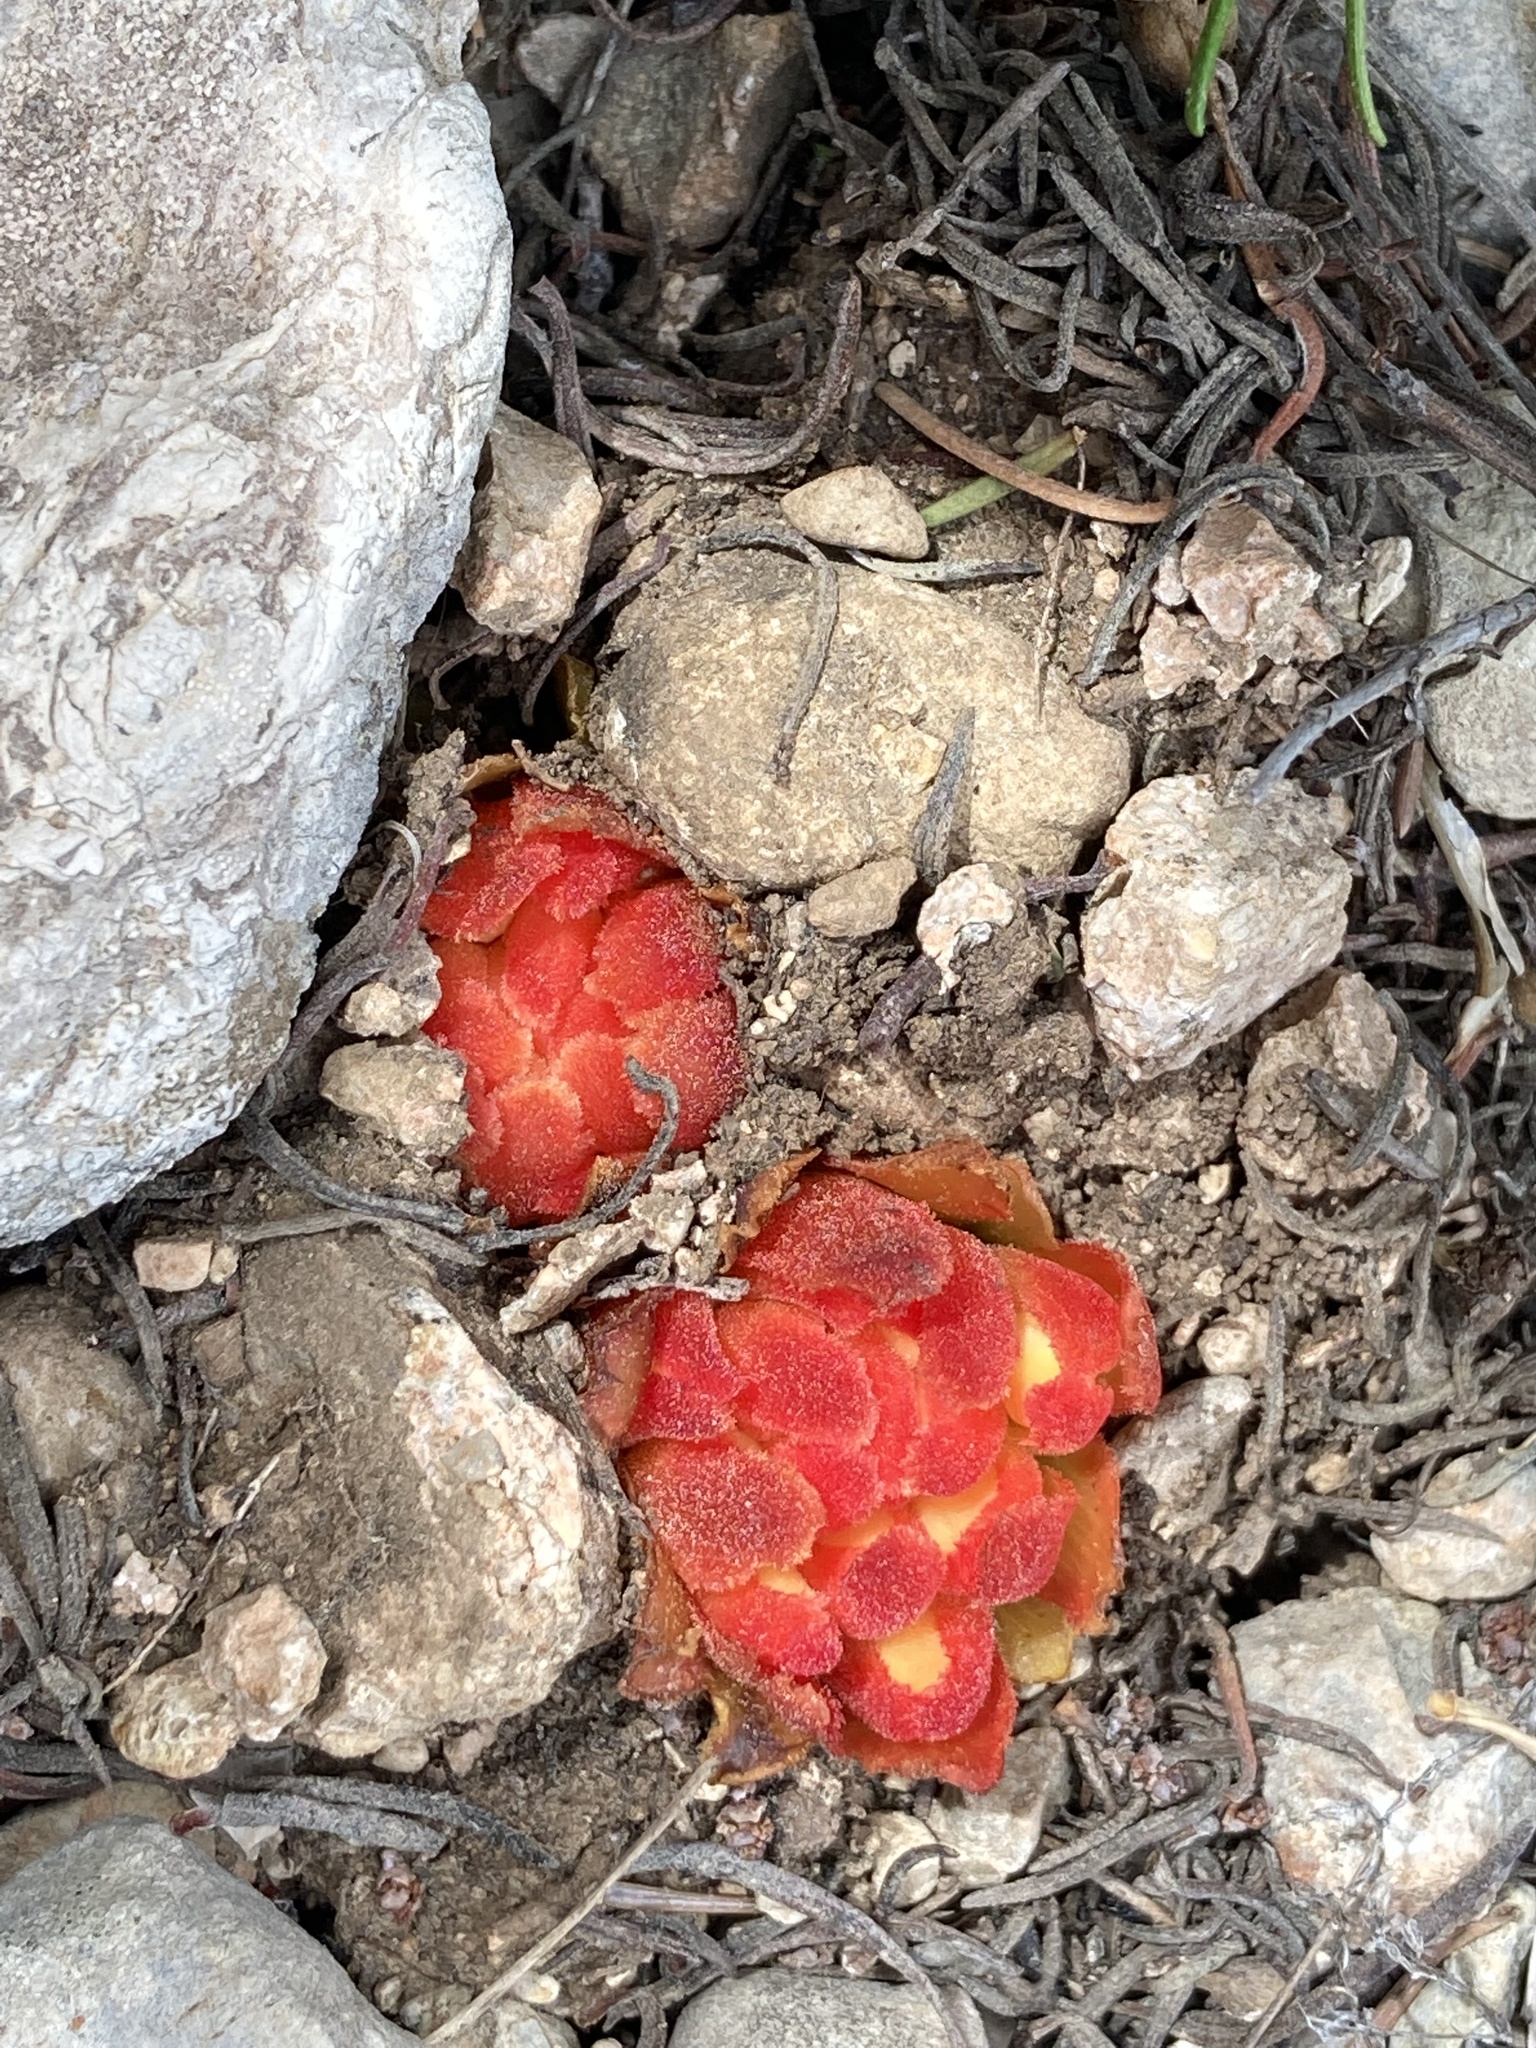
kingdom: Plantae
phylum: Tracheophyta
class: Magnoliopsida
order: Malvales
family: Cytinaceae
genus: Cytinus
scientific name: Cytinus hypocistis
